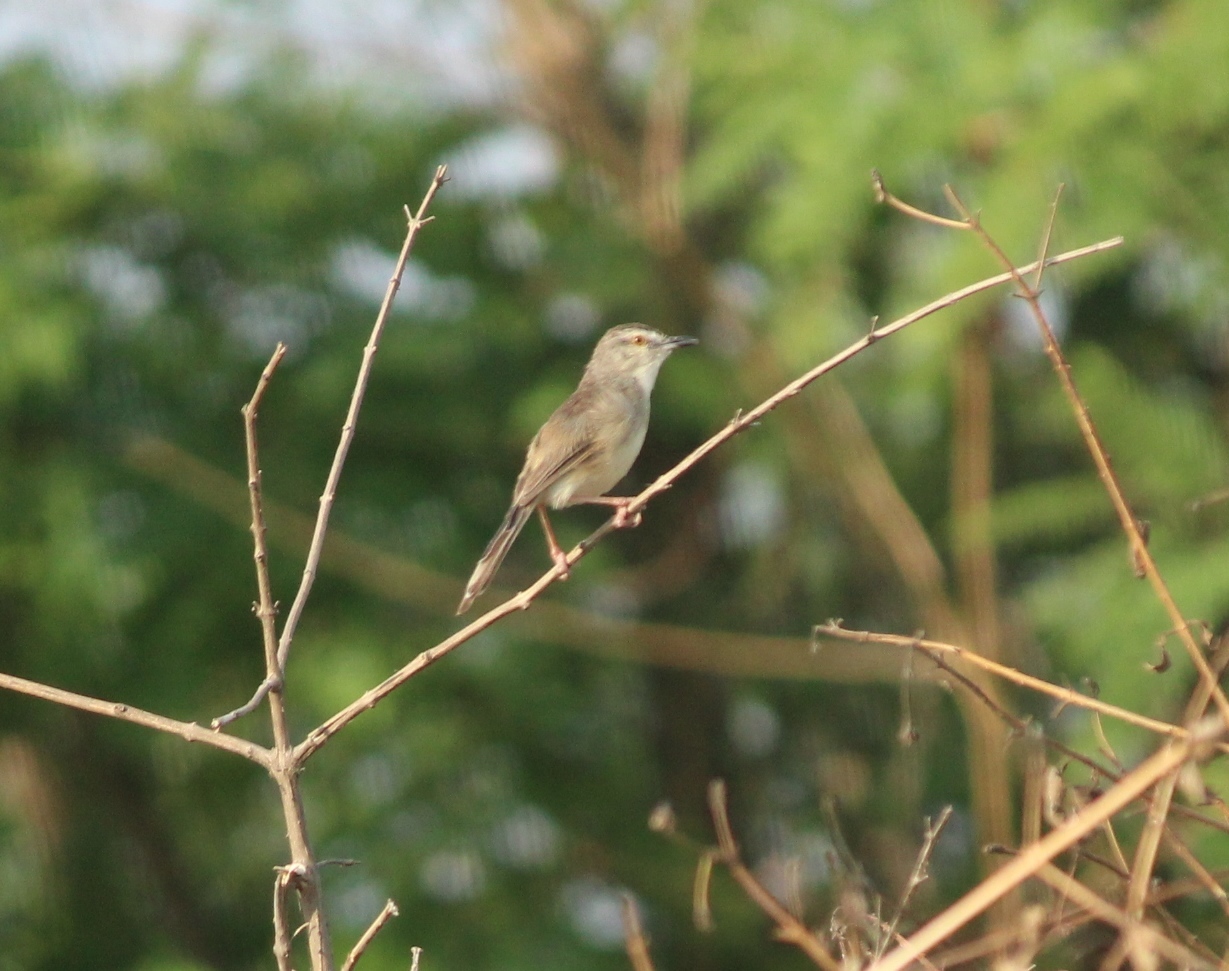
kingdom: Animalia
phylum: Chordata
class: Aves
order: Passeriformes
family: Cisticolidae
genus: Prinia
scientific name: Prinia inornata
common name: Plain prinia
